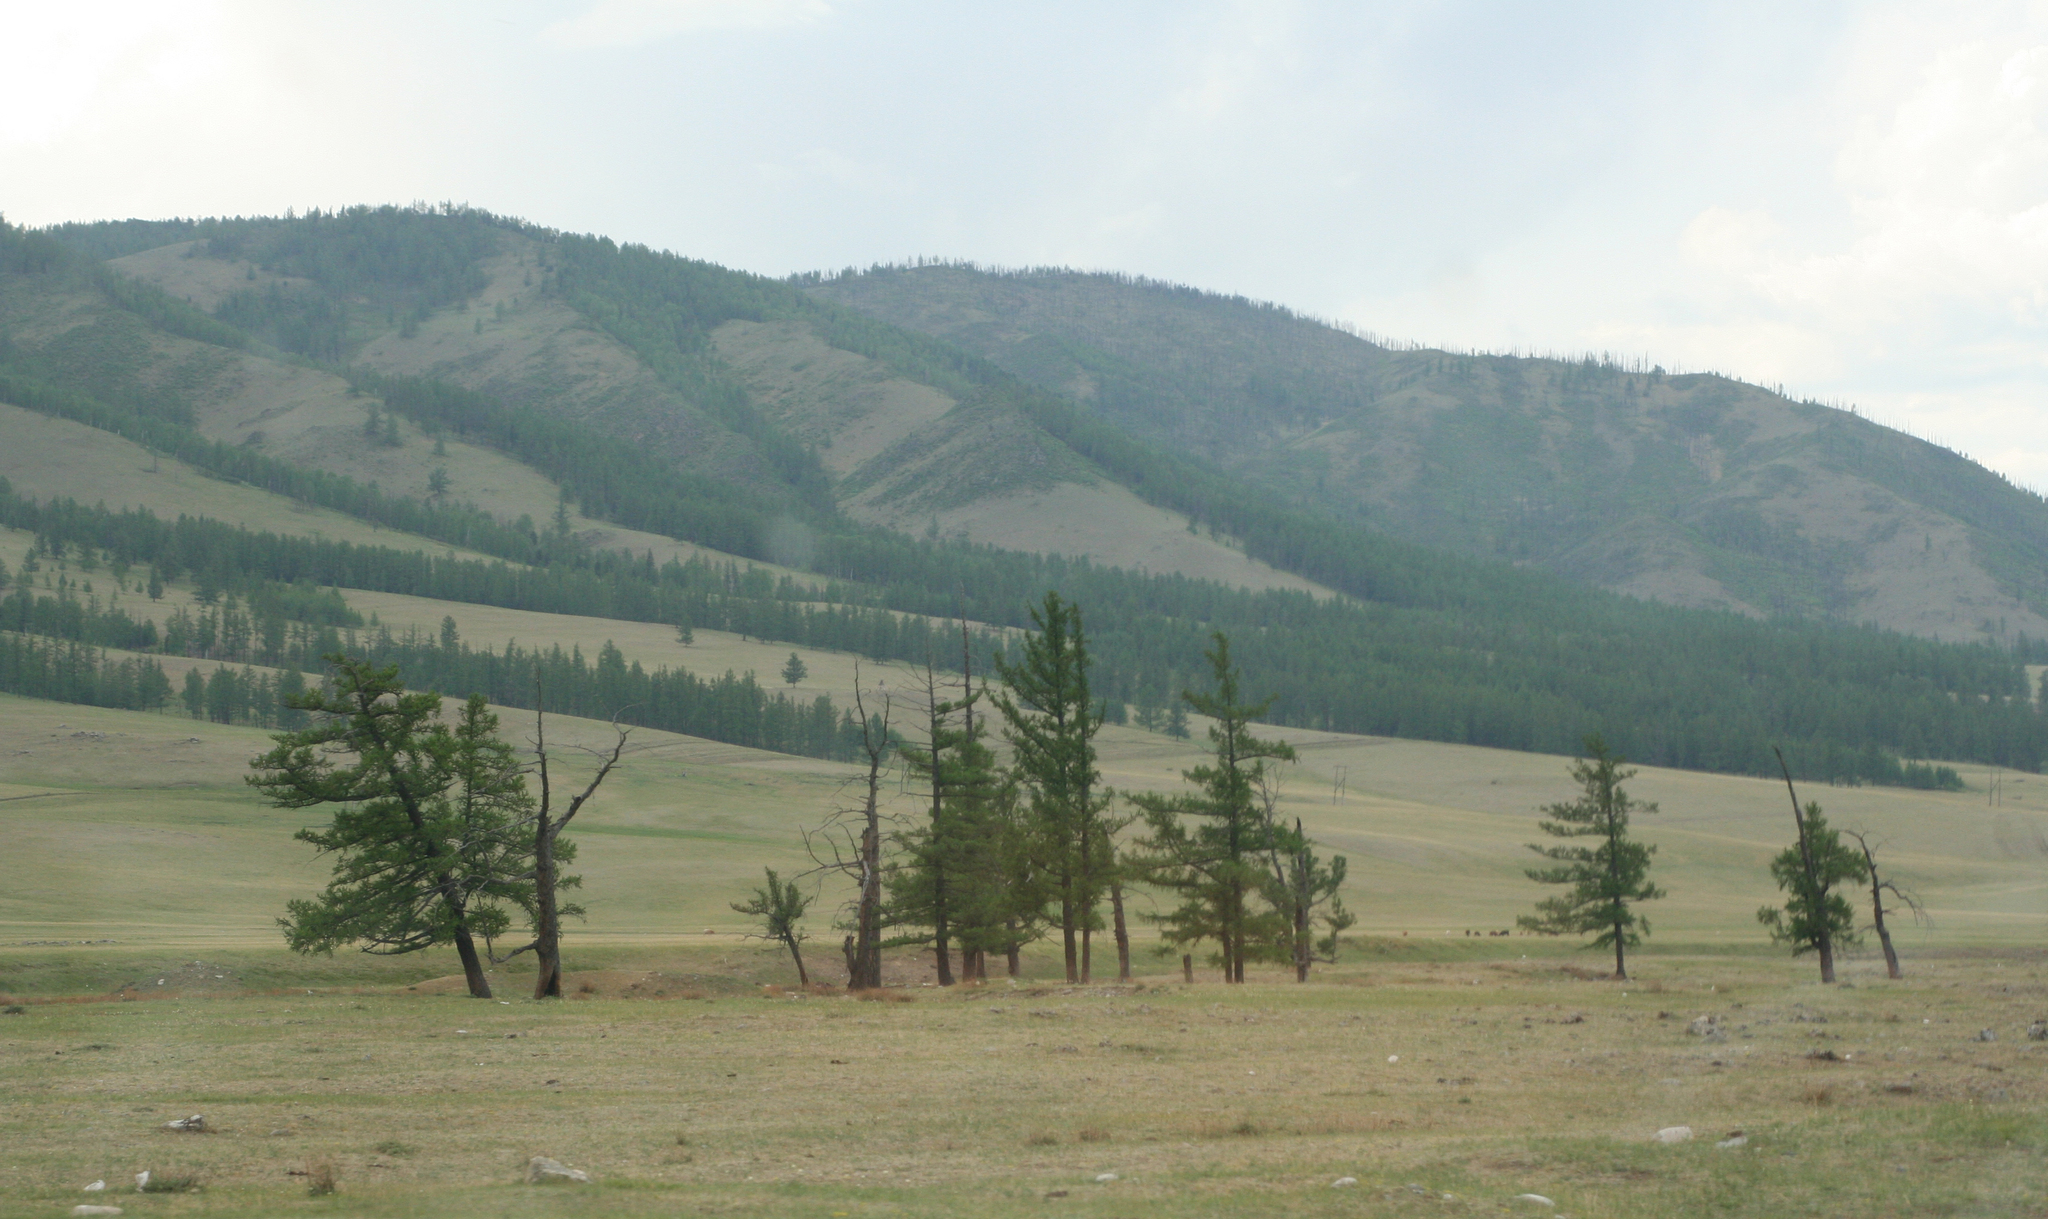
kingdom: Plantae
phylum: Tracheophyta
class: Pinopsida
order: Pinales
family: Pinaceae
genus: Larix
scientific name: Larix sibirica
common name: Siberian larch
